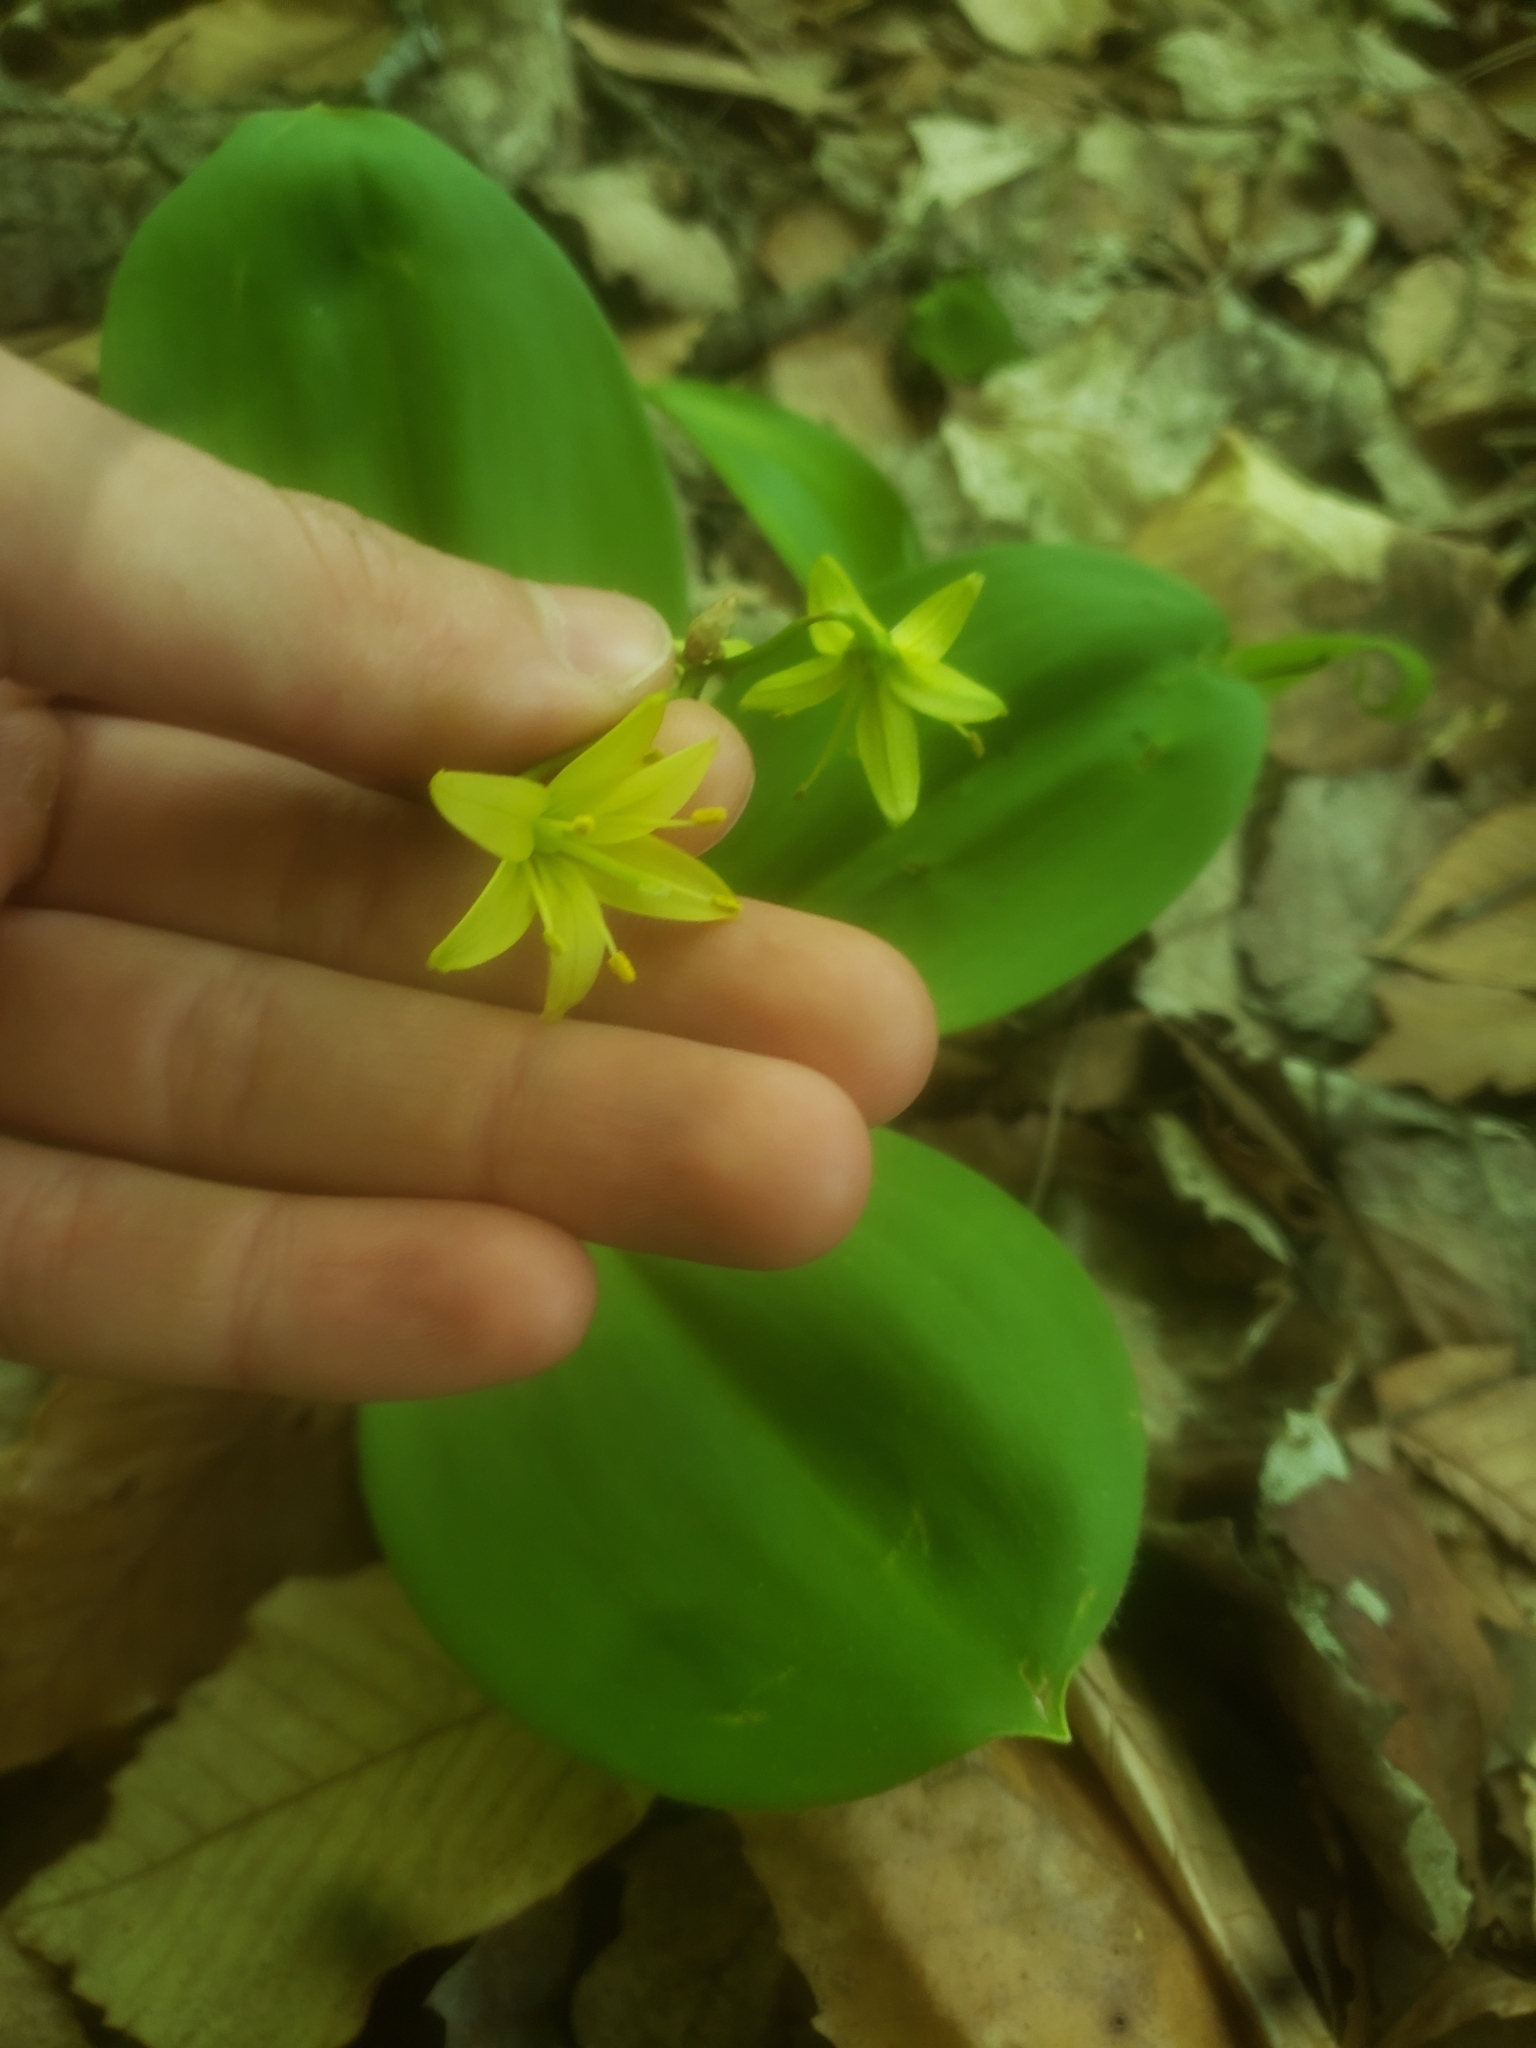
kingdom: Plantae
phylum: Tracheophyta
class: Liliopsida
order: Liliales
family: Liliaceae
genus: Clintonia
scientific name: Clintonia borealis
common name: Yellow clintonia
